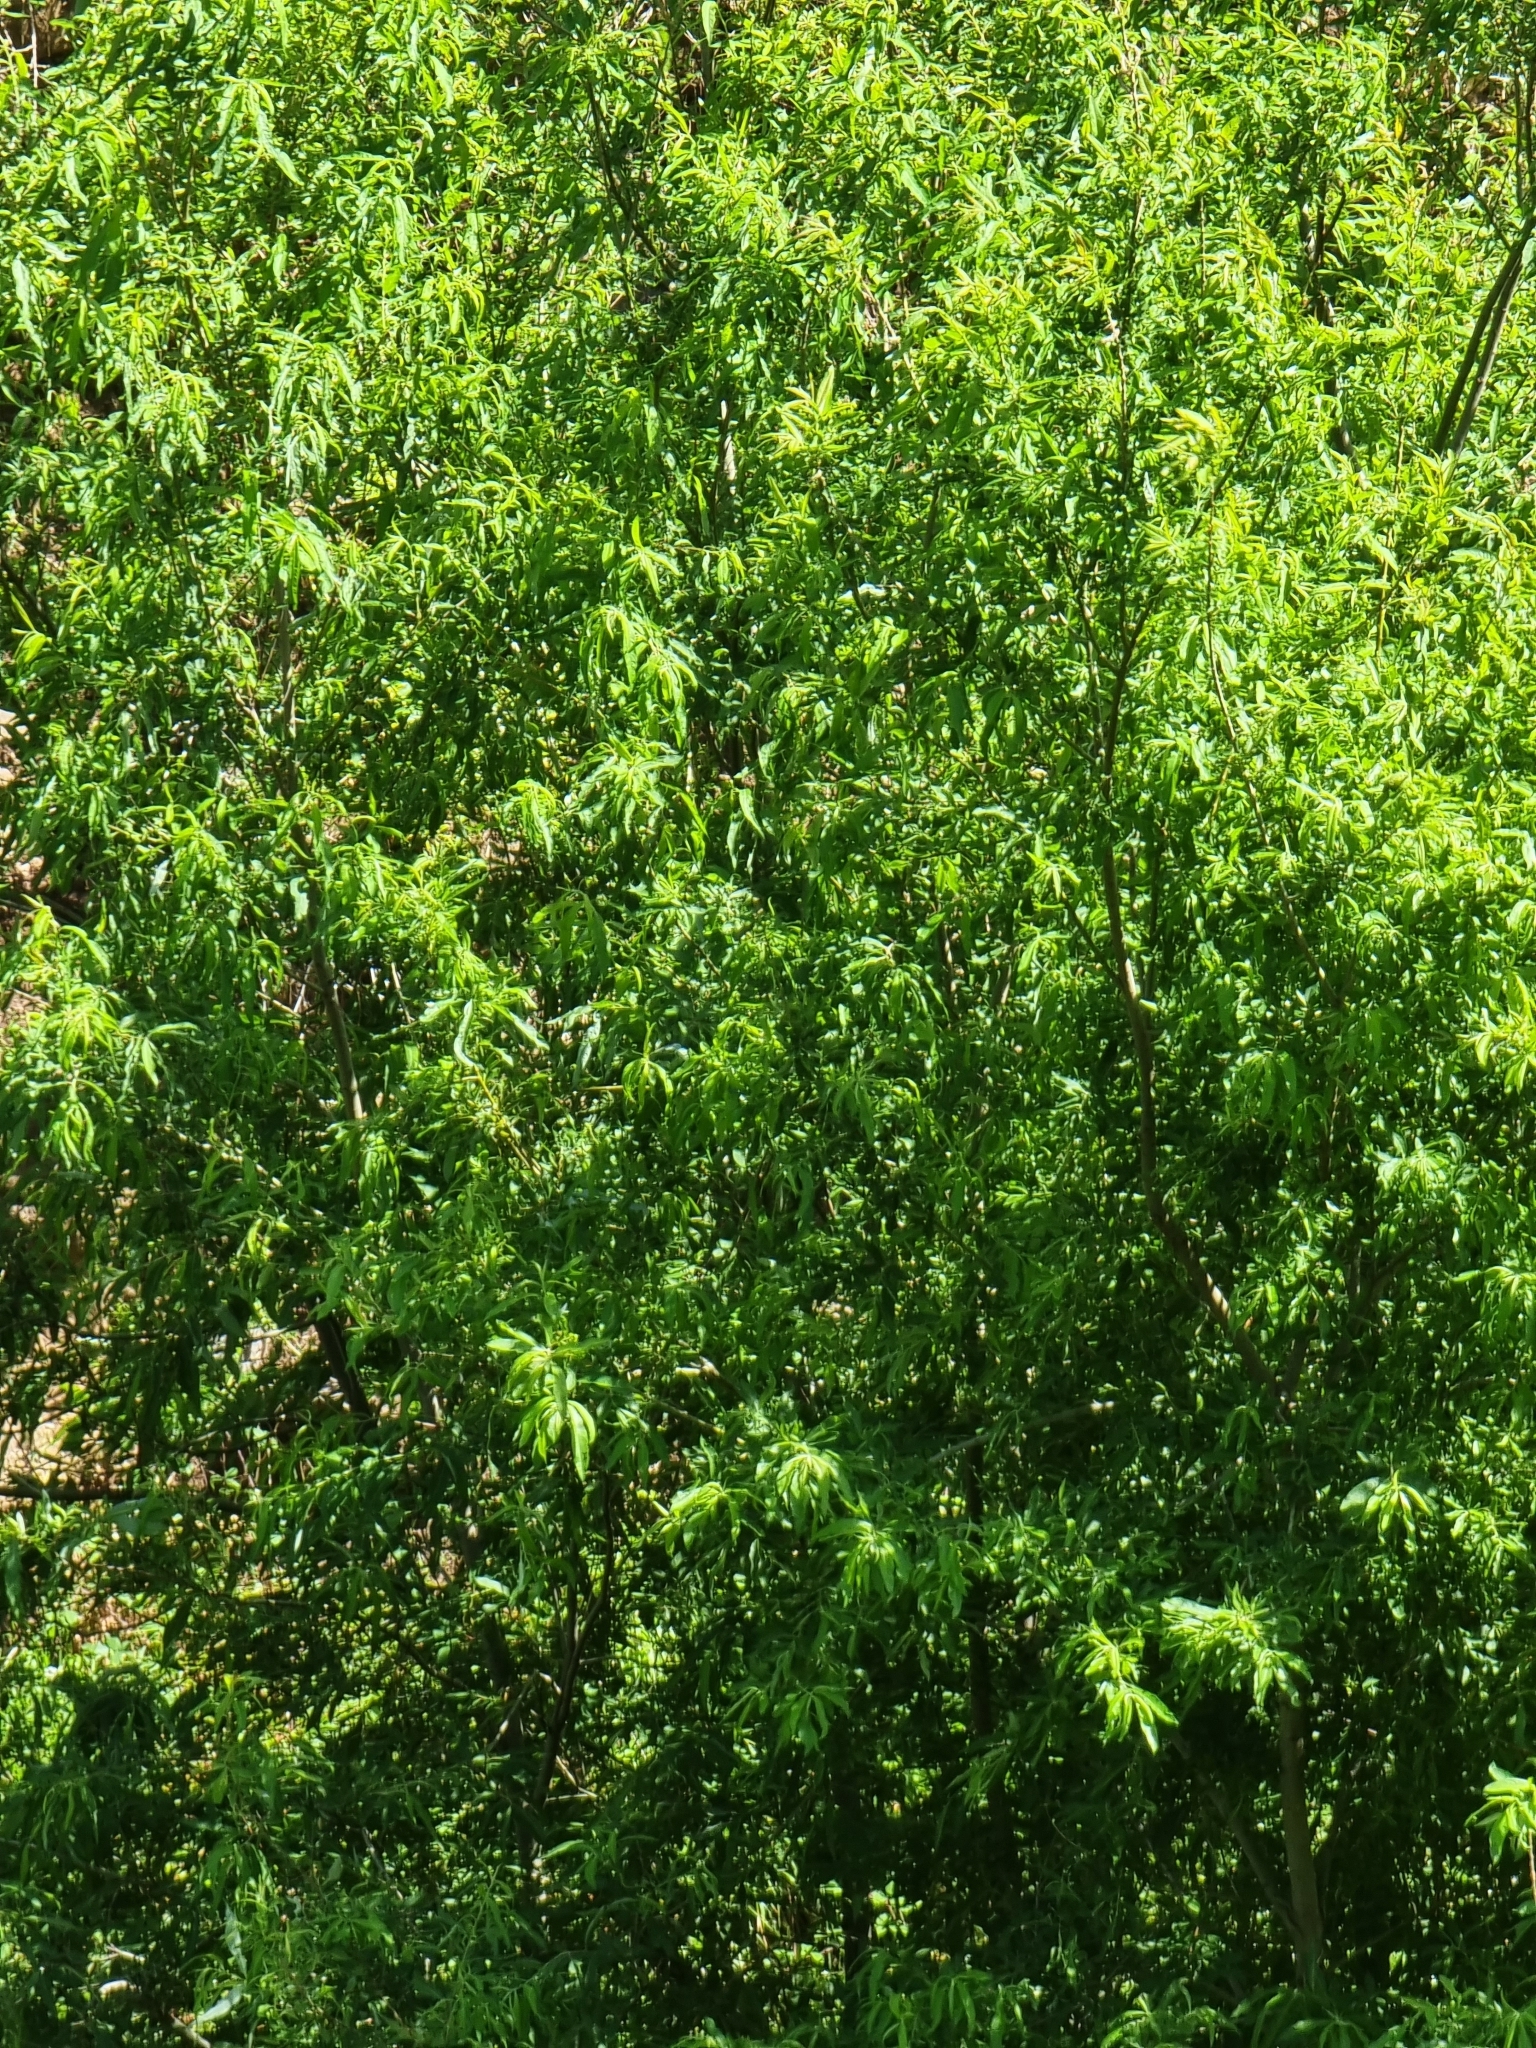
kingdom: Plantae
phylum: Tracheophyta
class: Magnoliopsida
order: Malpighiales
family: Salicaceae
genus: Salix
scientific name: Salix canariensis
